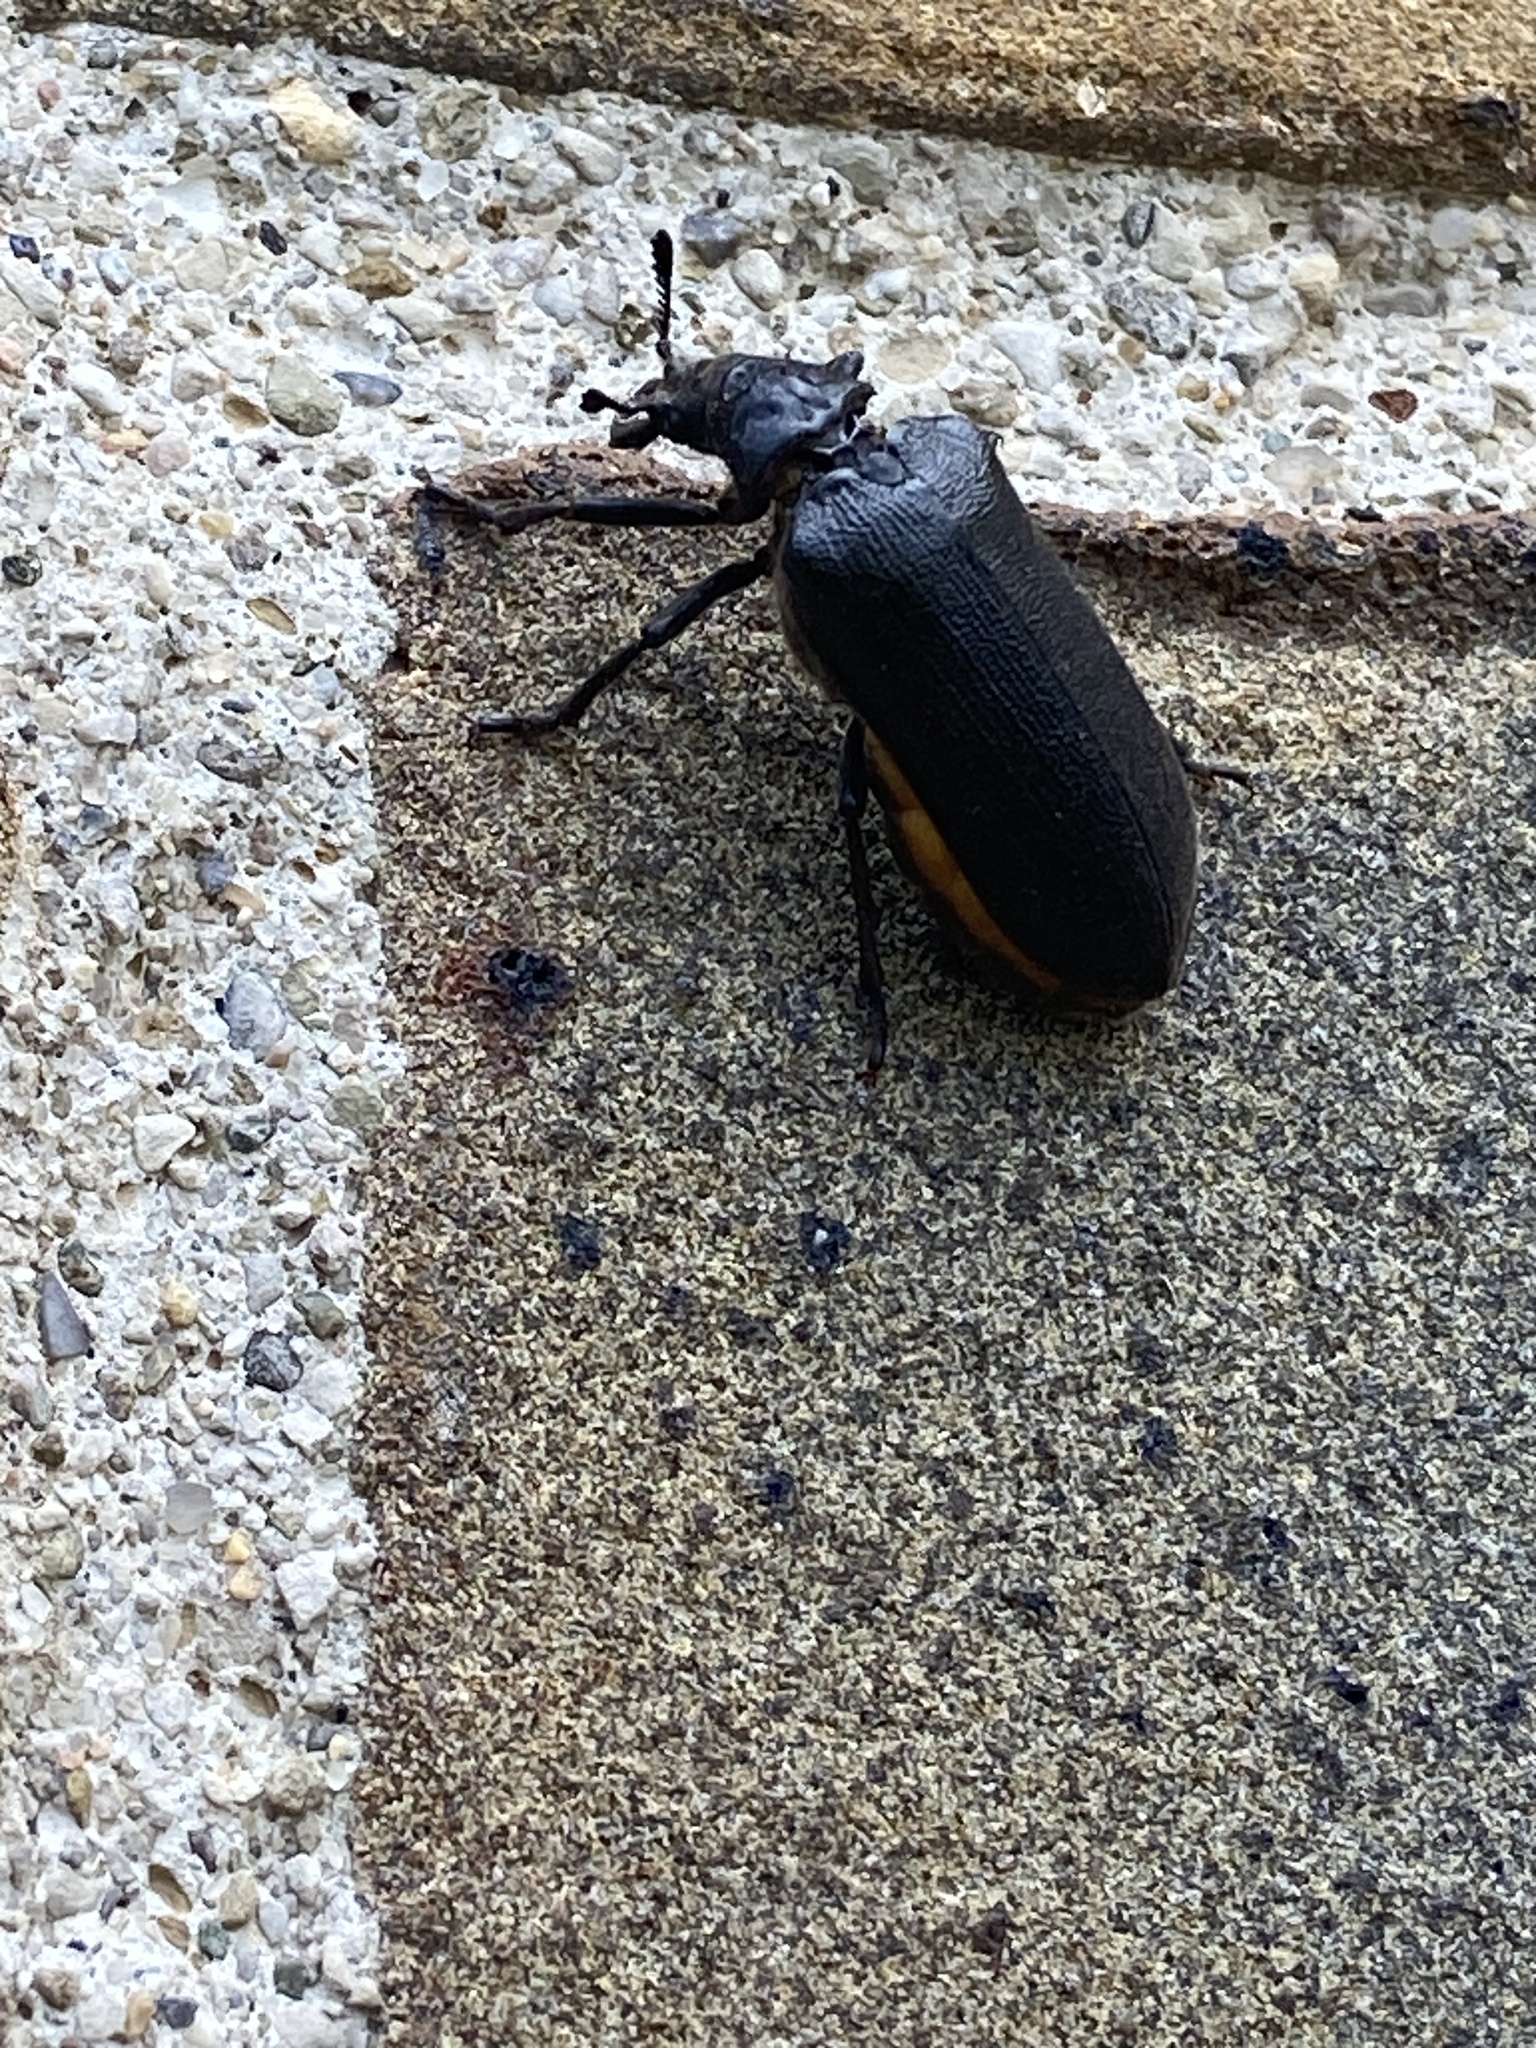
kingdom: Animalia
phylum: Arthropoda
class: Insecta
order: Coleoptera
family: Rhipiceridae
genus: Sandalus
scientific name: Sandalus niger
